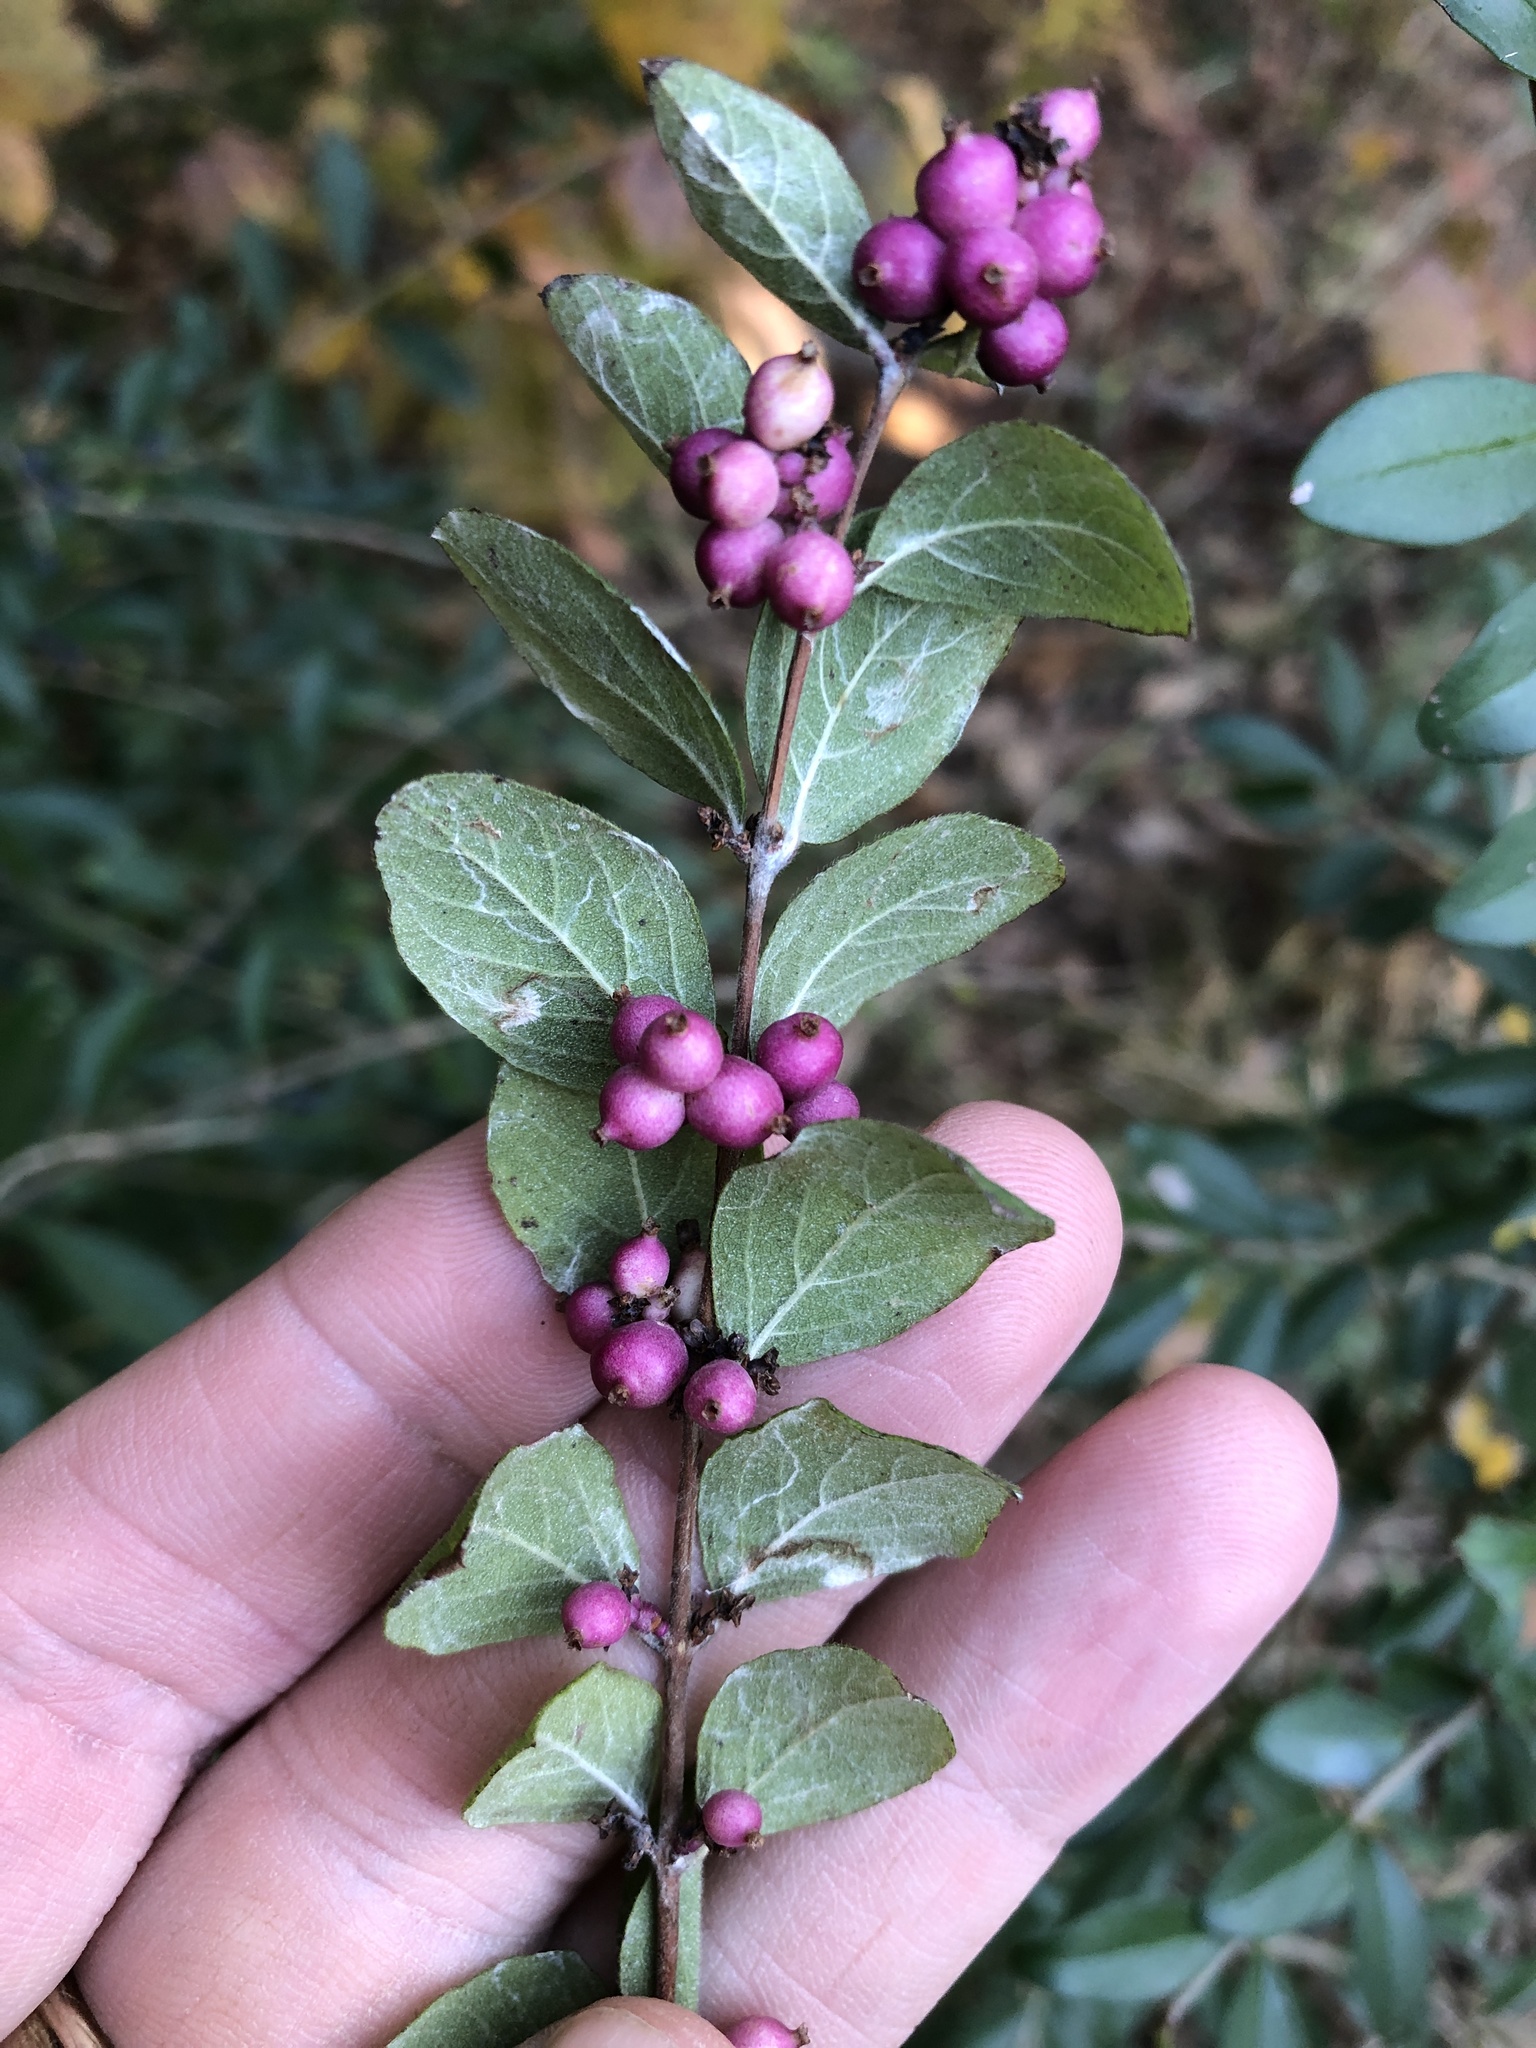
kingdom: Plantae
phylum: Tracheophyta
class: Magnoliopsida
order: Dipsacales
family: Caprifoliaceae
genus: Symphoricarpos
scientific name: Symphoricarpos orbiculatus
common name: Coralberry
